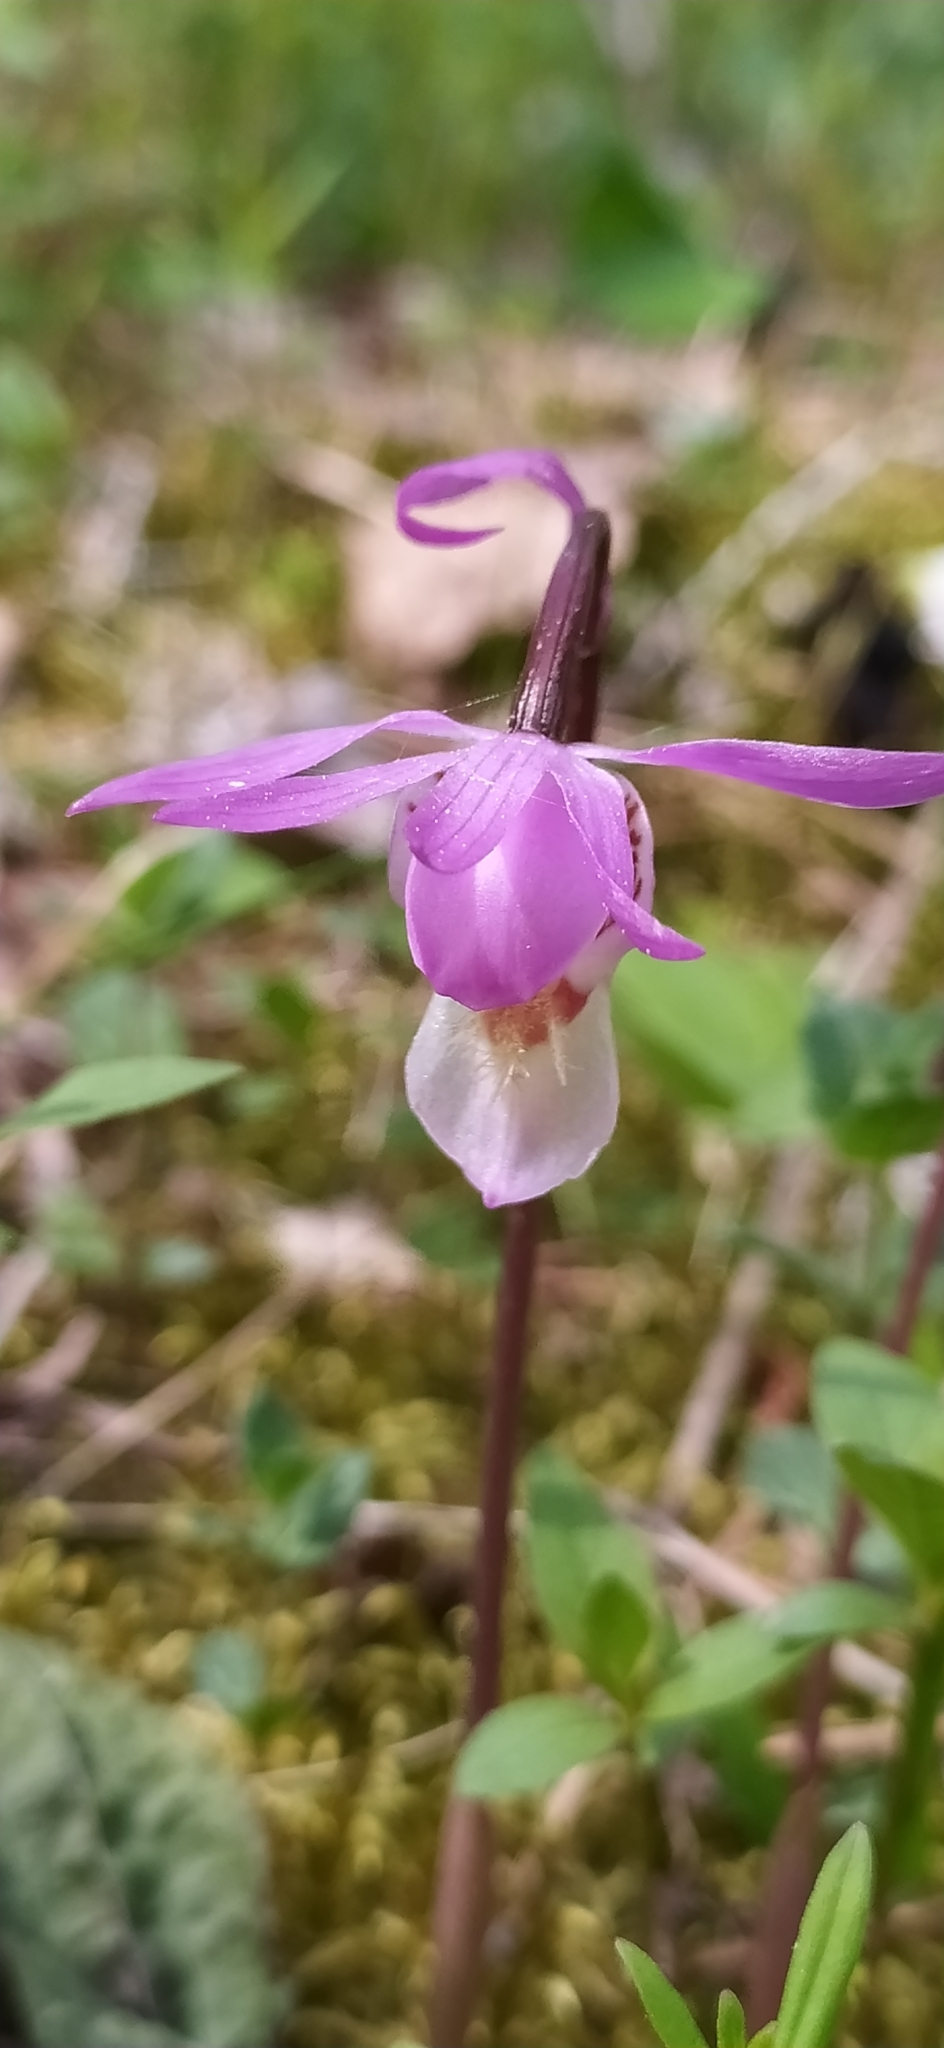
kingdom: Plantae
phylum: Tracheophyta
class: Liliopsida
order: Asparagales
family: Orchidaceae
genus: Calypso
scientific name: Calypso bulbosa
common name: Calypso
